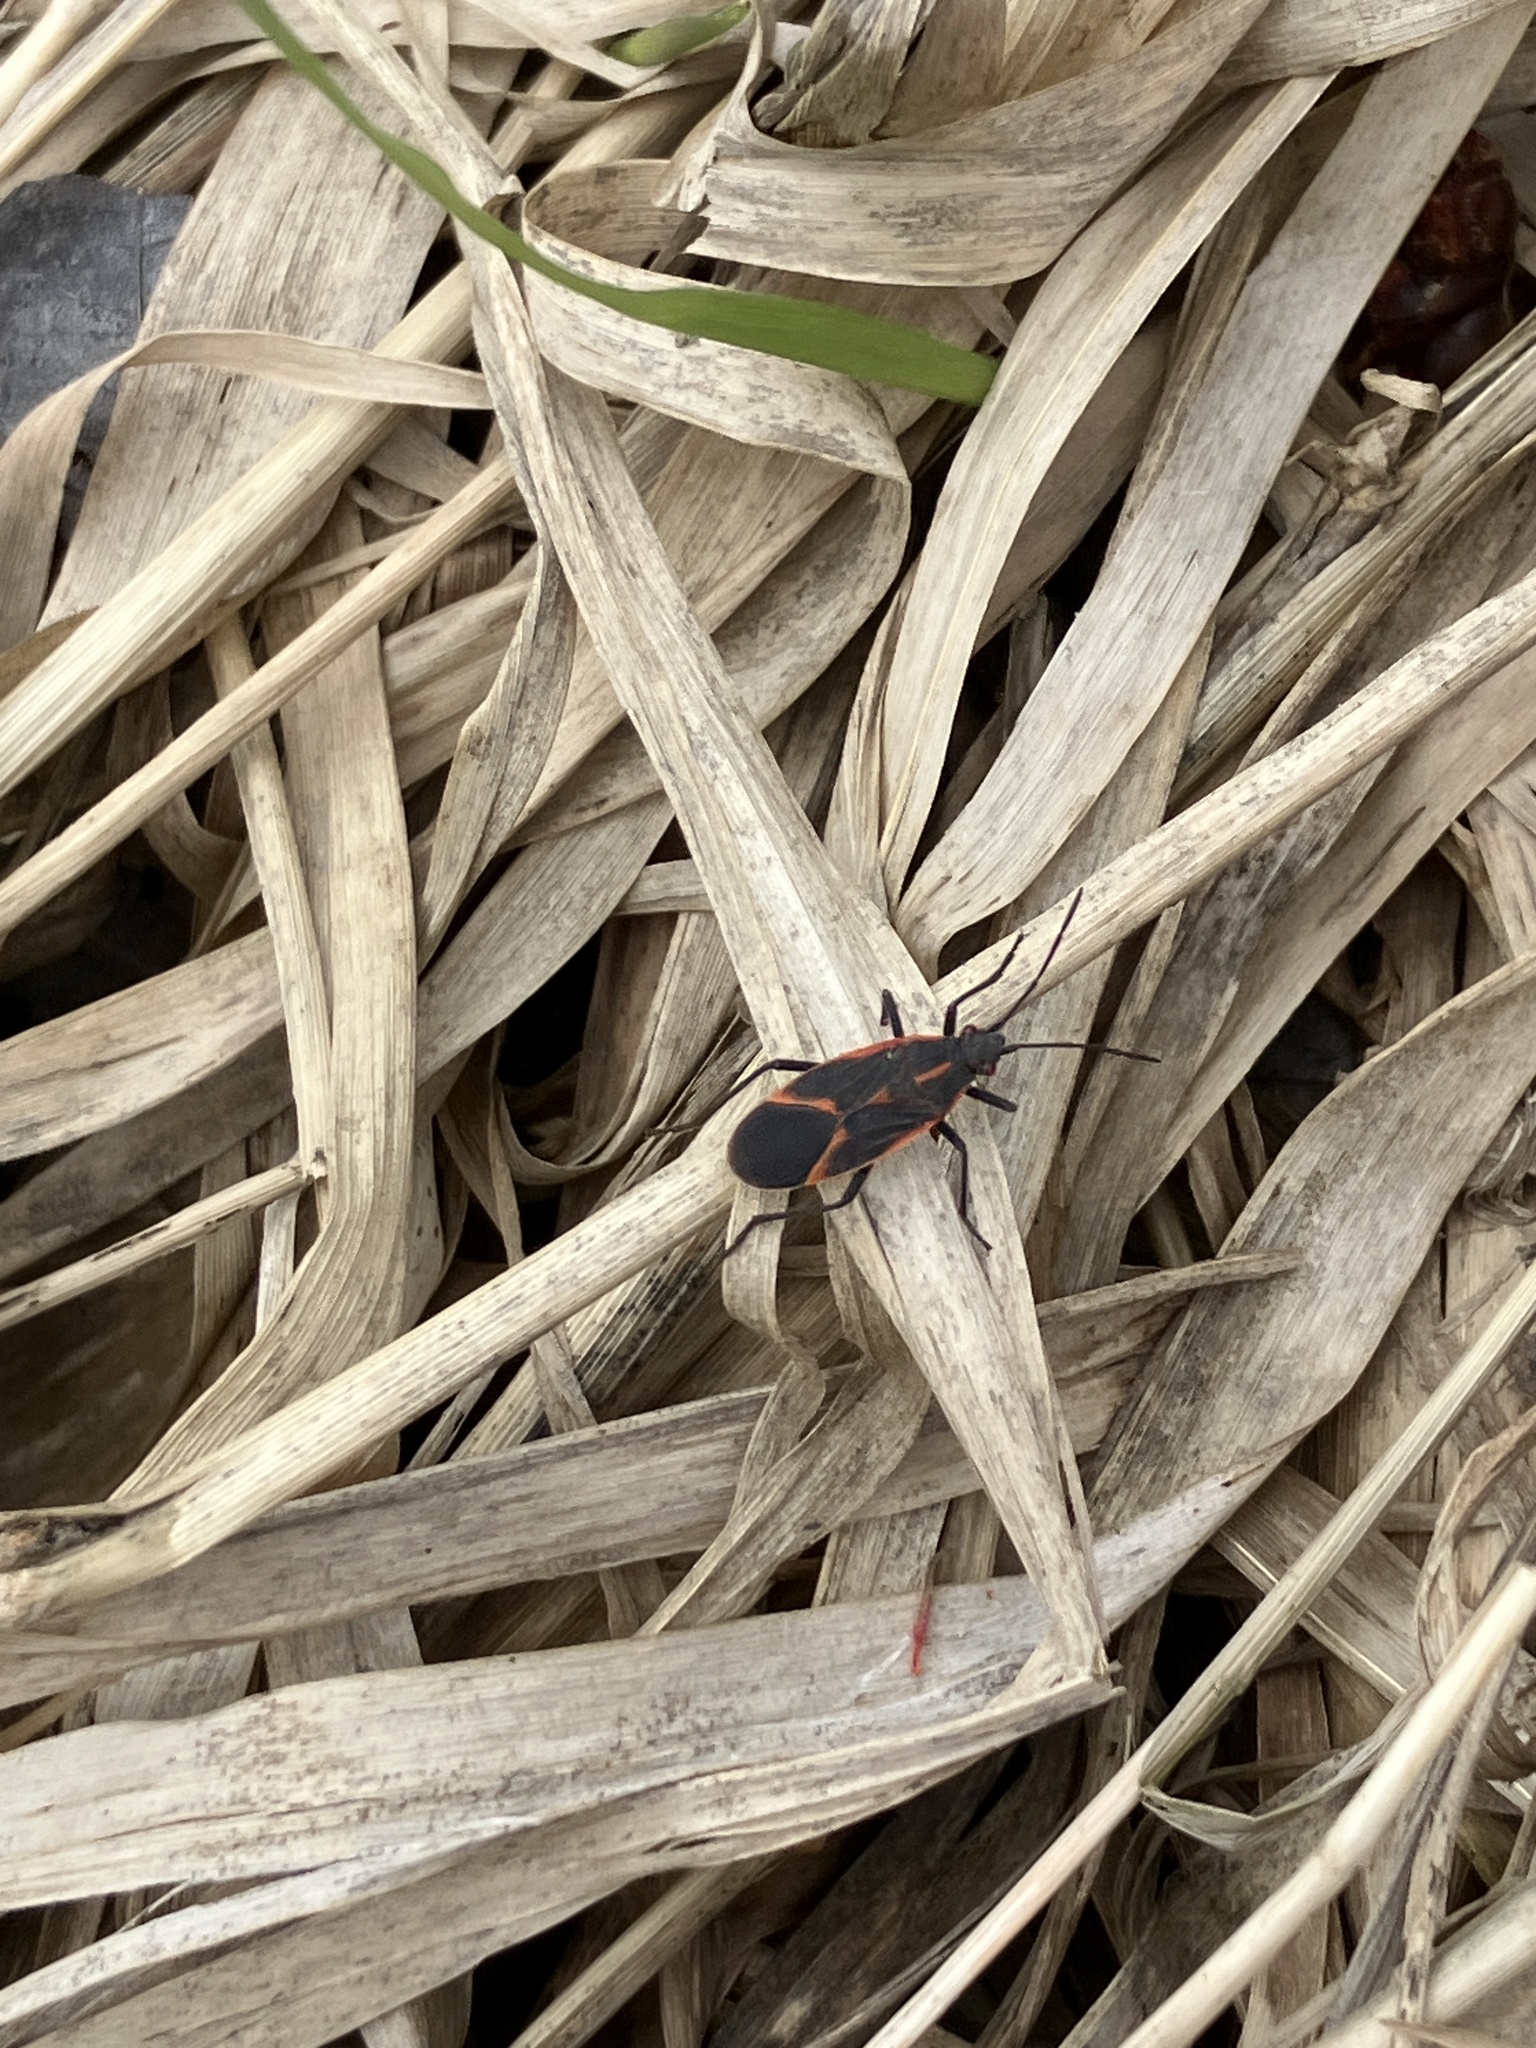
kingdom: Animalia
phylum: Arthropoda
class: Insecta
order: Hemiptera
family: Rhopalidae
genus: Boisea
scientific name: Boisea trivittata
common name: Boxelder bug
